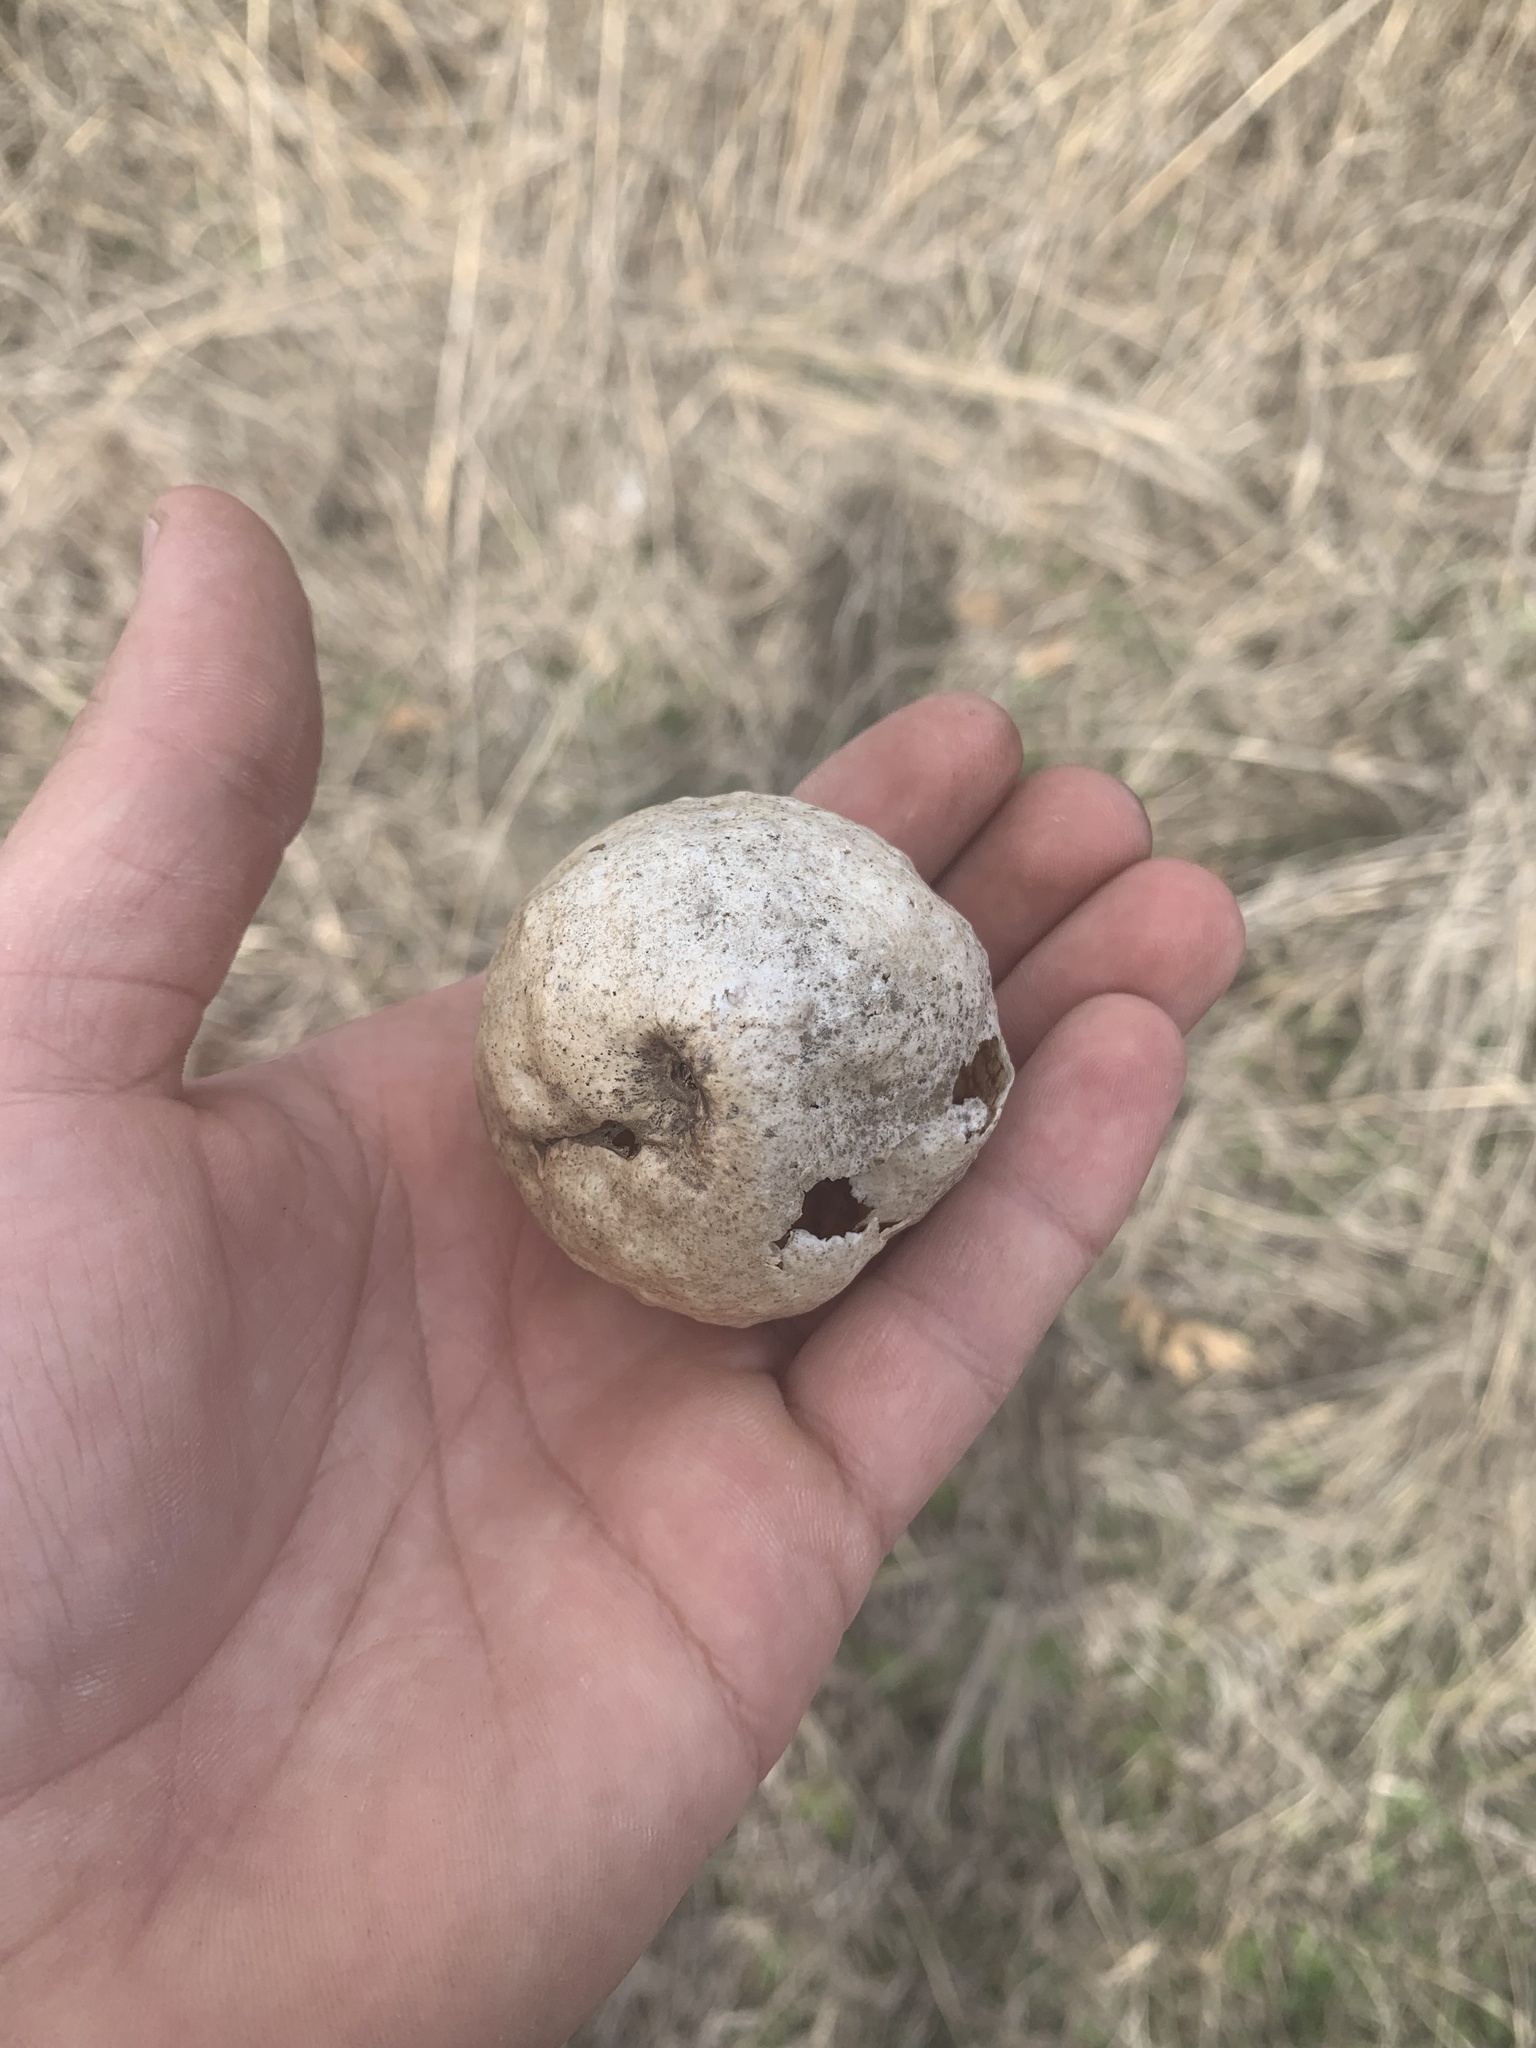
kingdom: Animalia
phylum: Arthropoda
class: Insecta
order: Hymenoptera
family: Cynipidae
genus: Amphibolips
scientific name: Amphibolips
